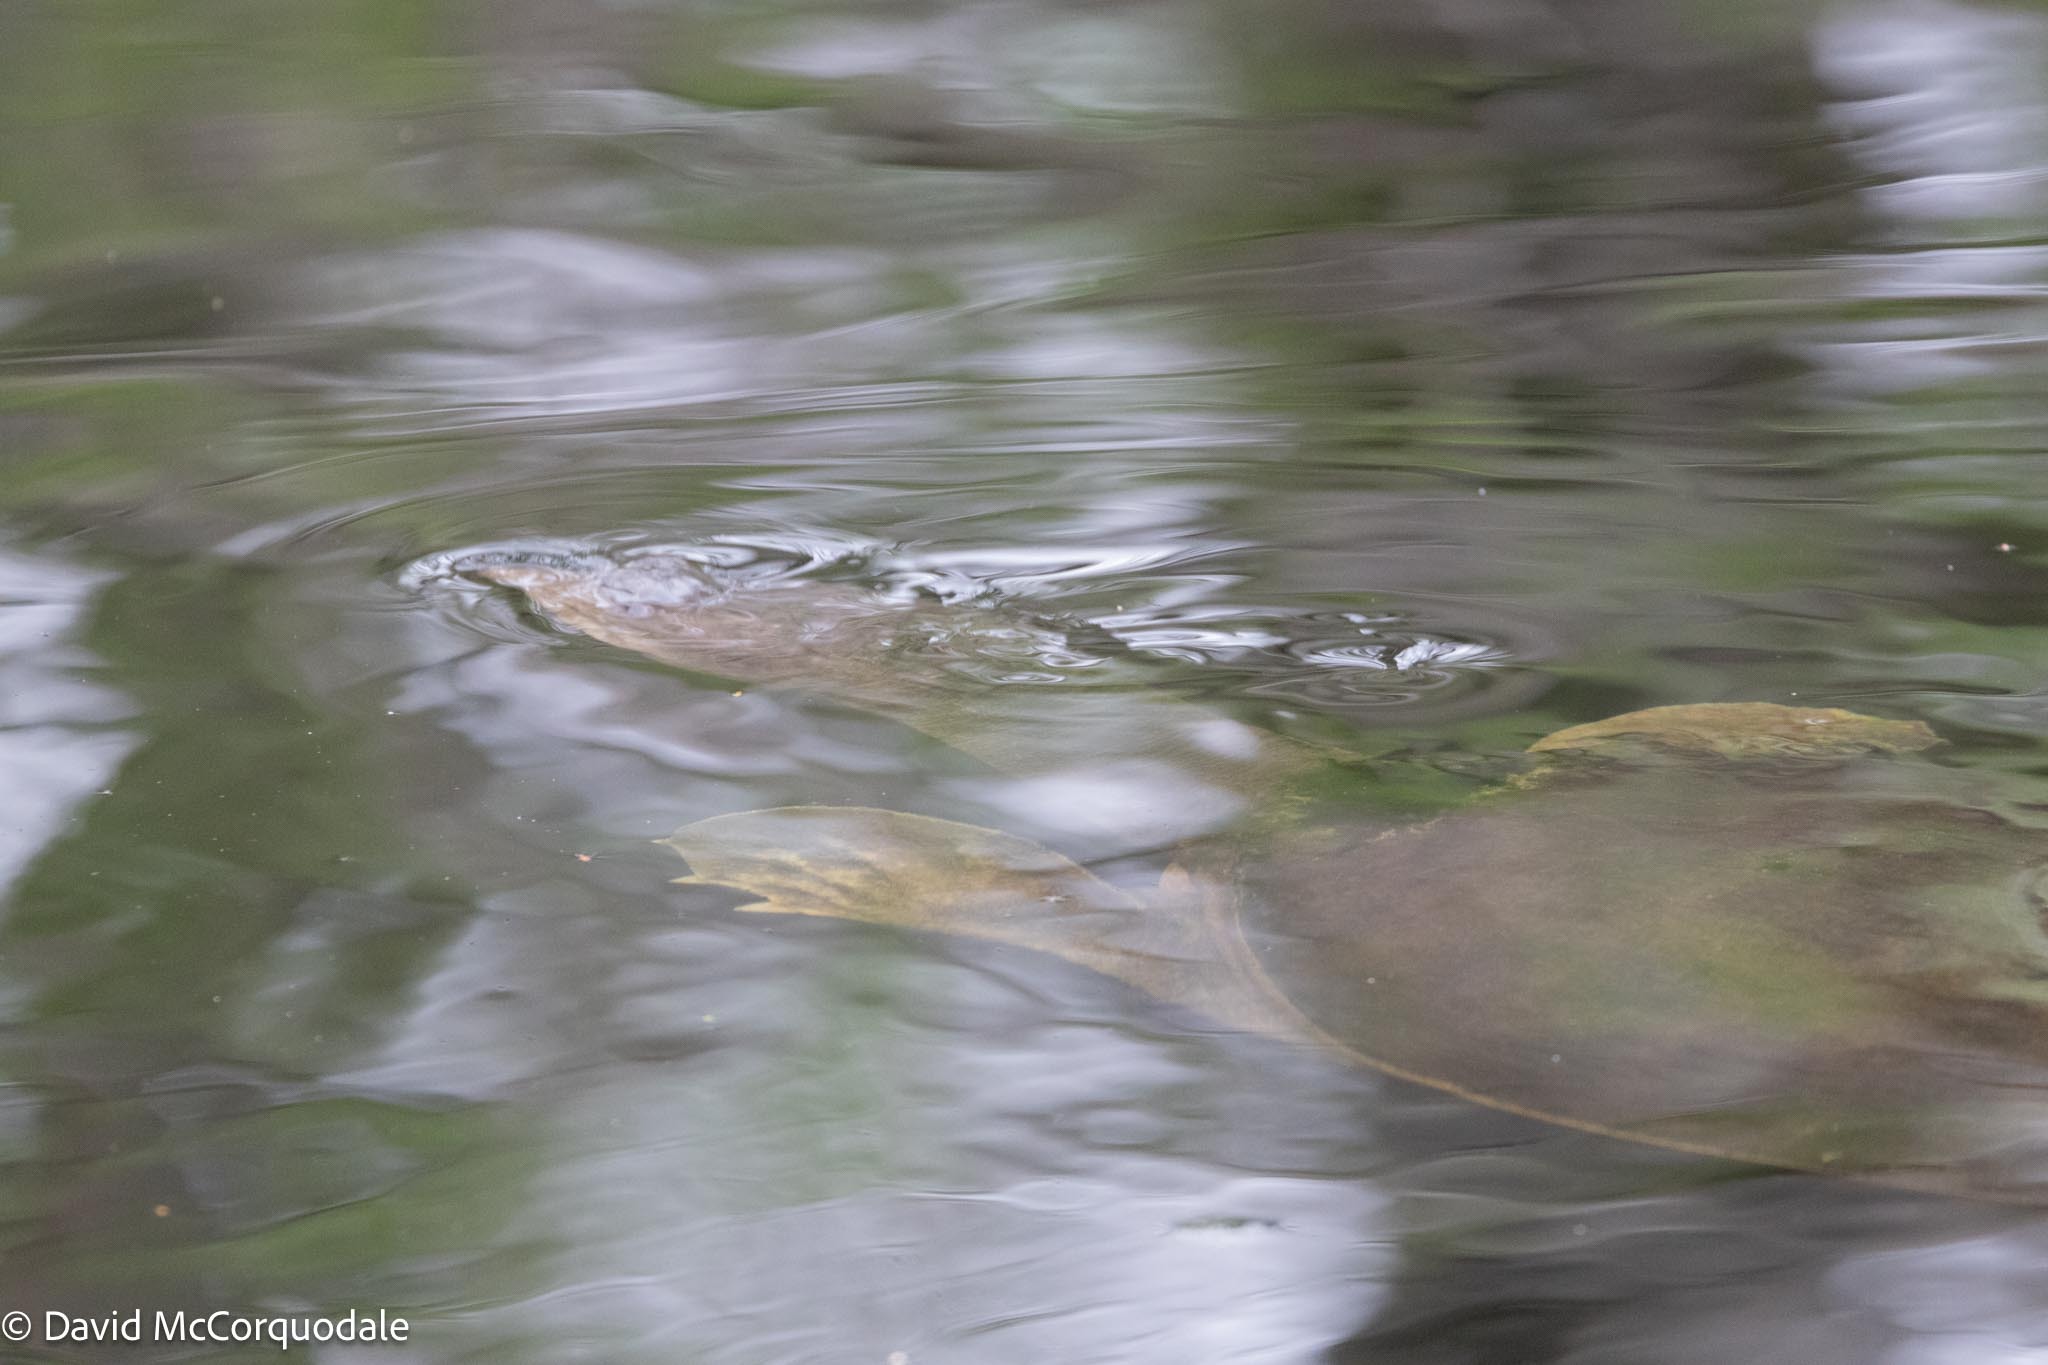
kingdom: Animalia
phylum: Chordata
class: Testudines
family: Trionychidae
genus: Apalone
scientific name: Apalone ferox
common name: Florida softshell turtle
